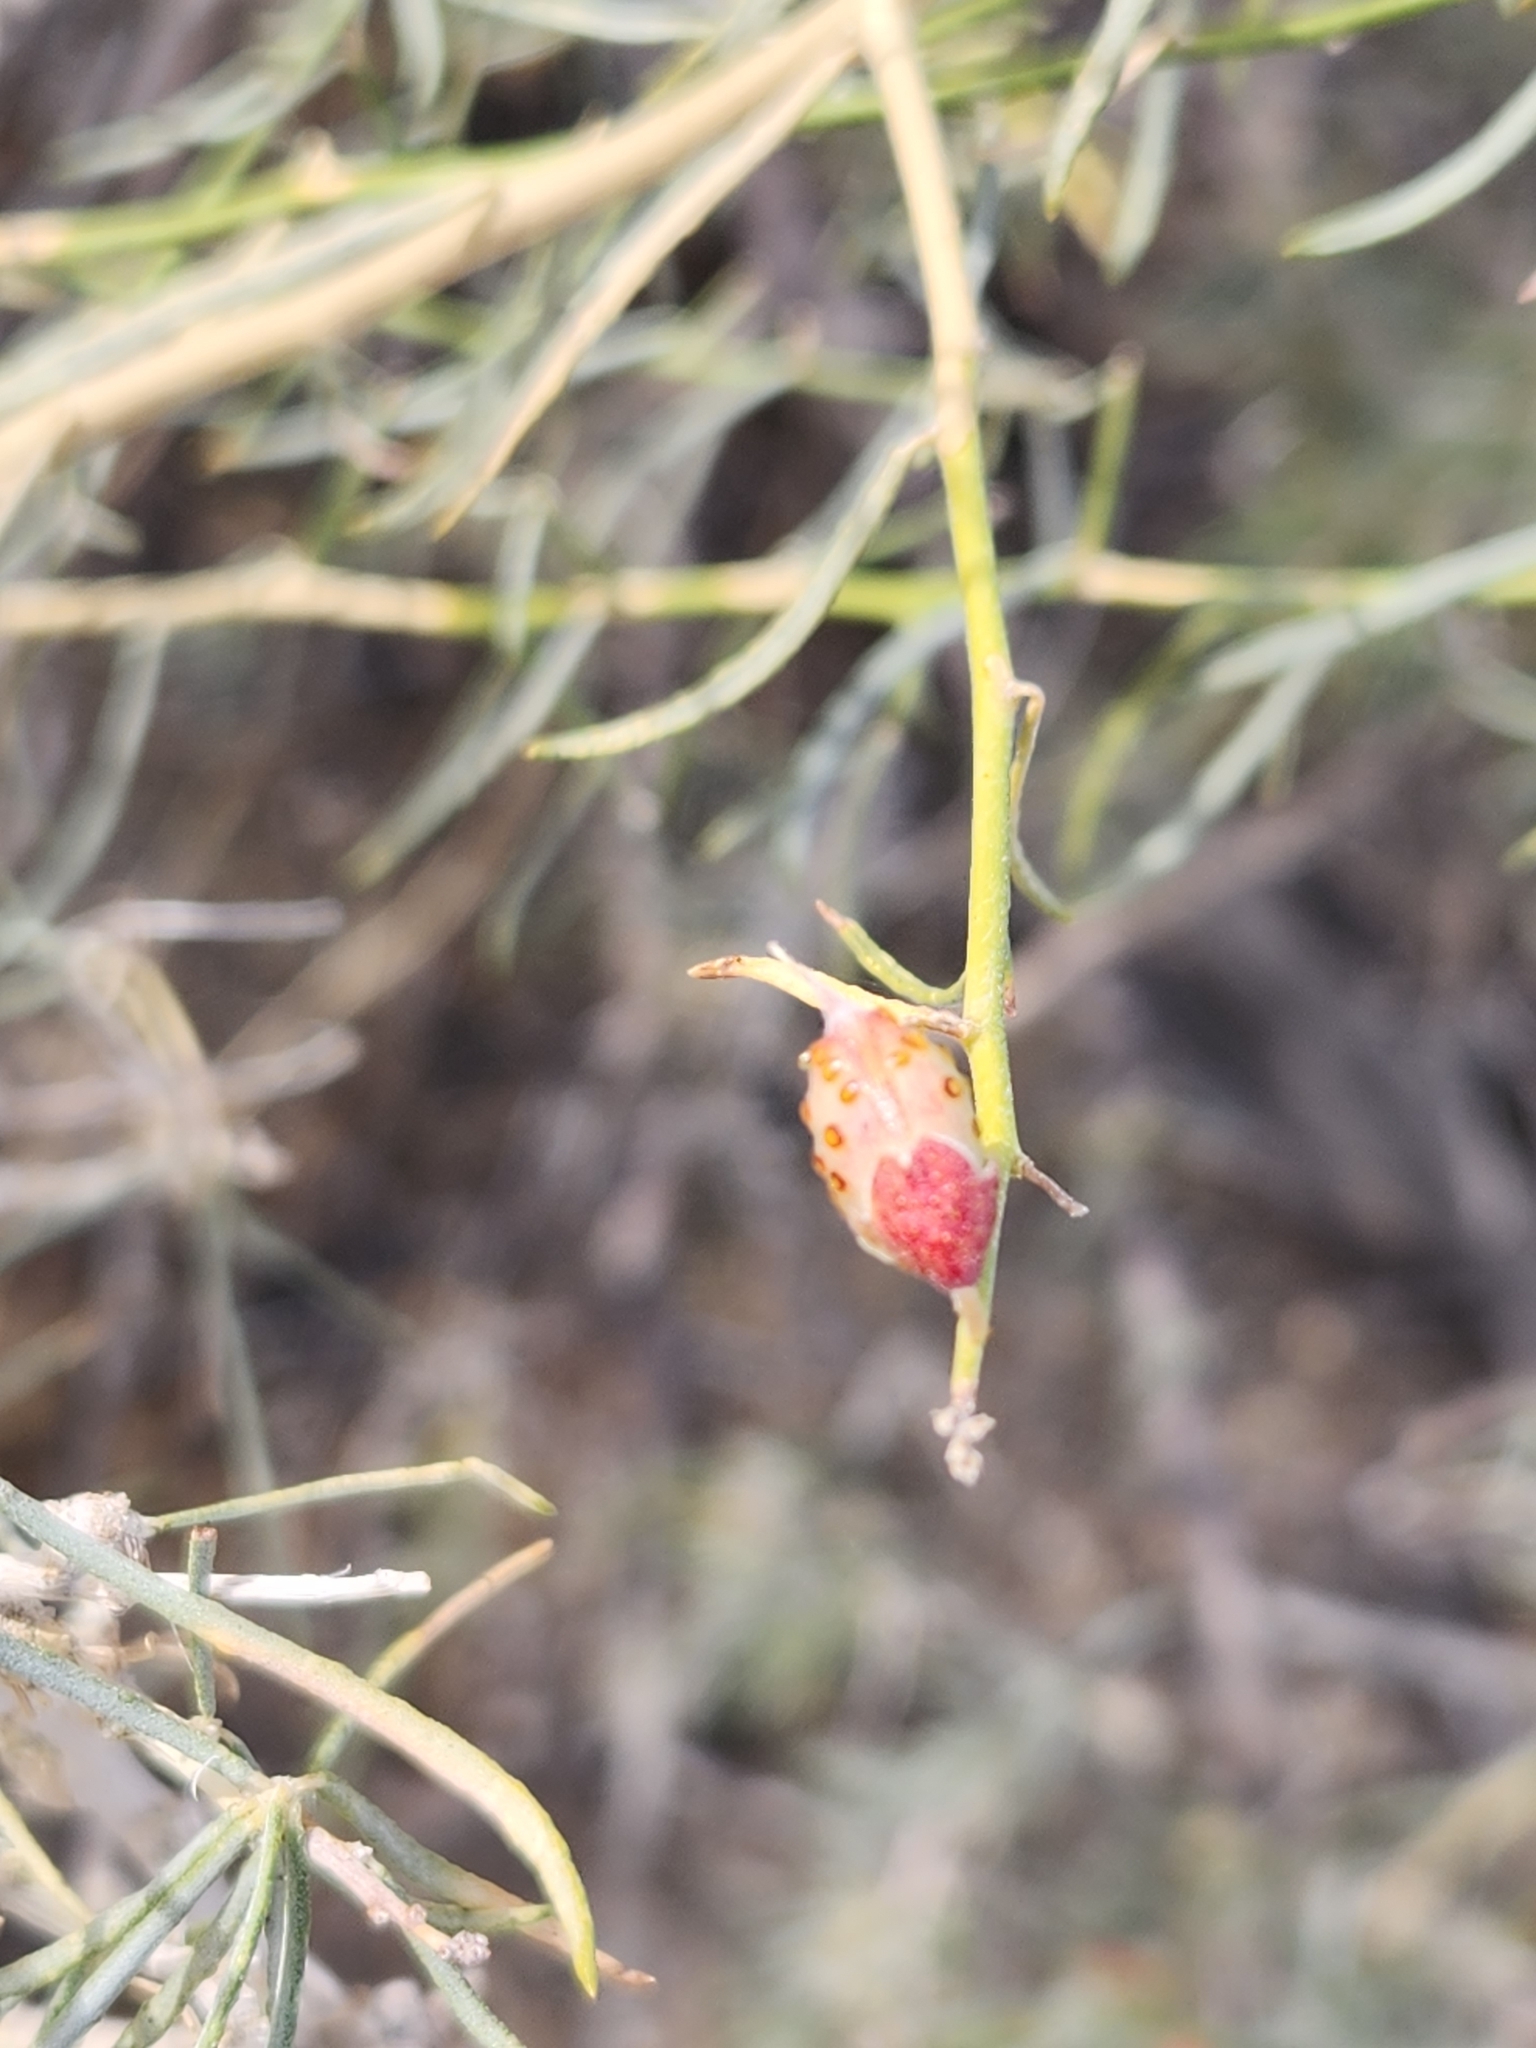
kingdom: Plantae
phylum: Tracheophyta
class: Magnoliopsida
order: Fabales
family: Fabaceae
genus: Psorothamnus
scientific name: Psorothamnus schottii
